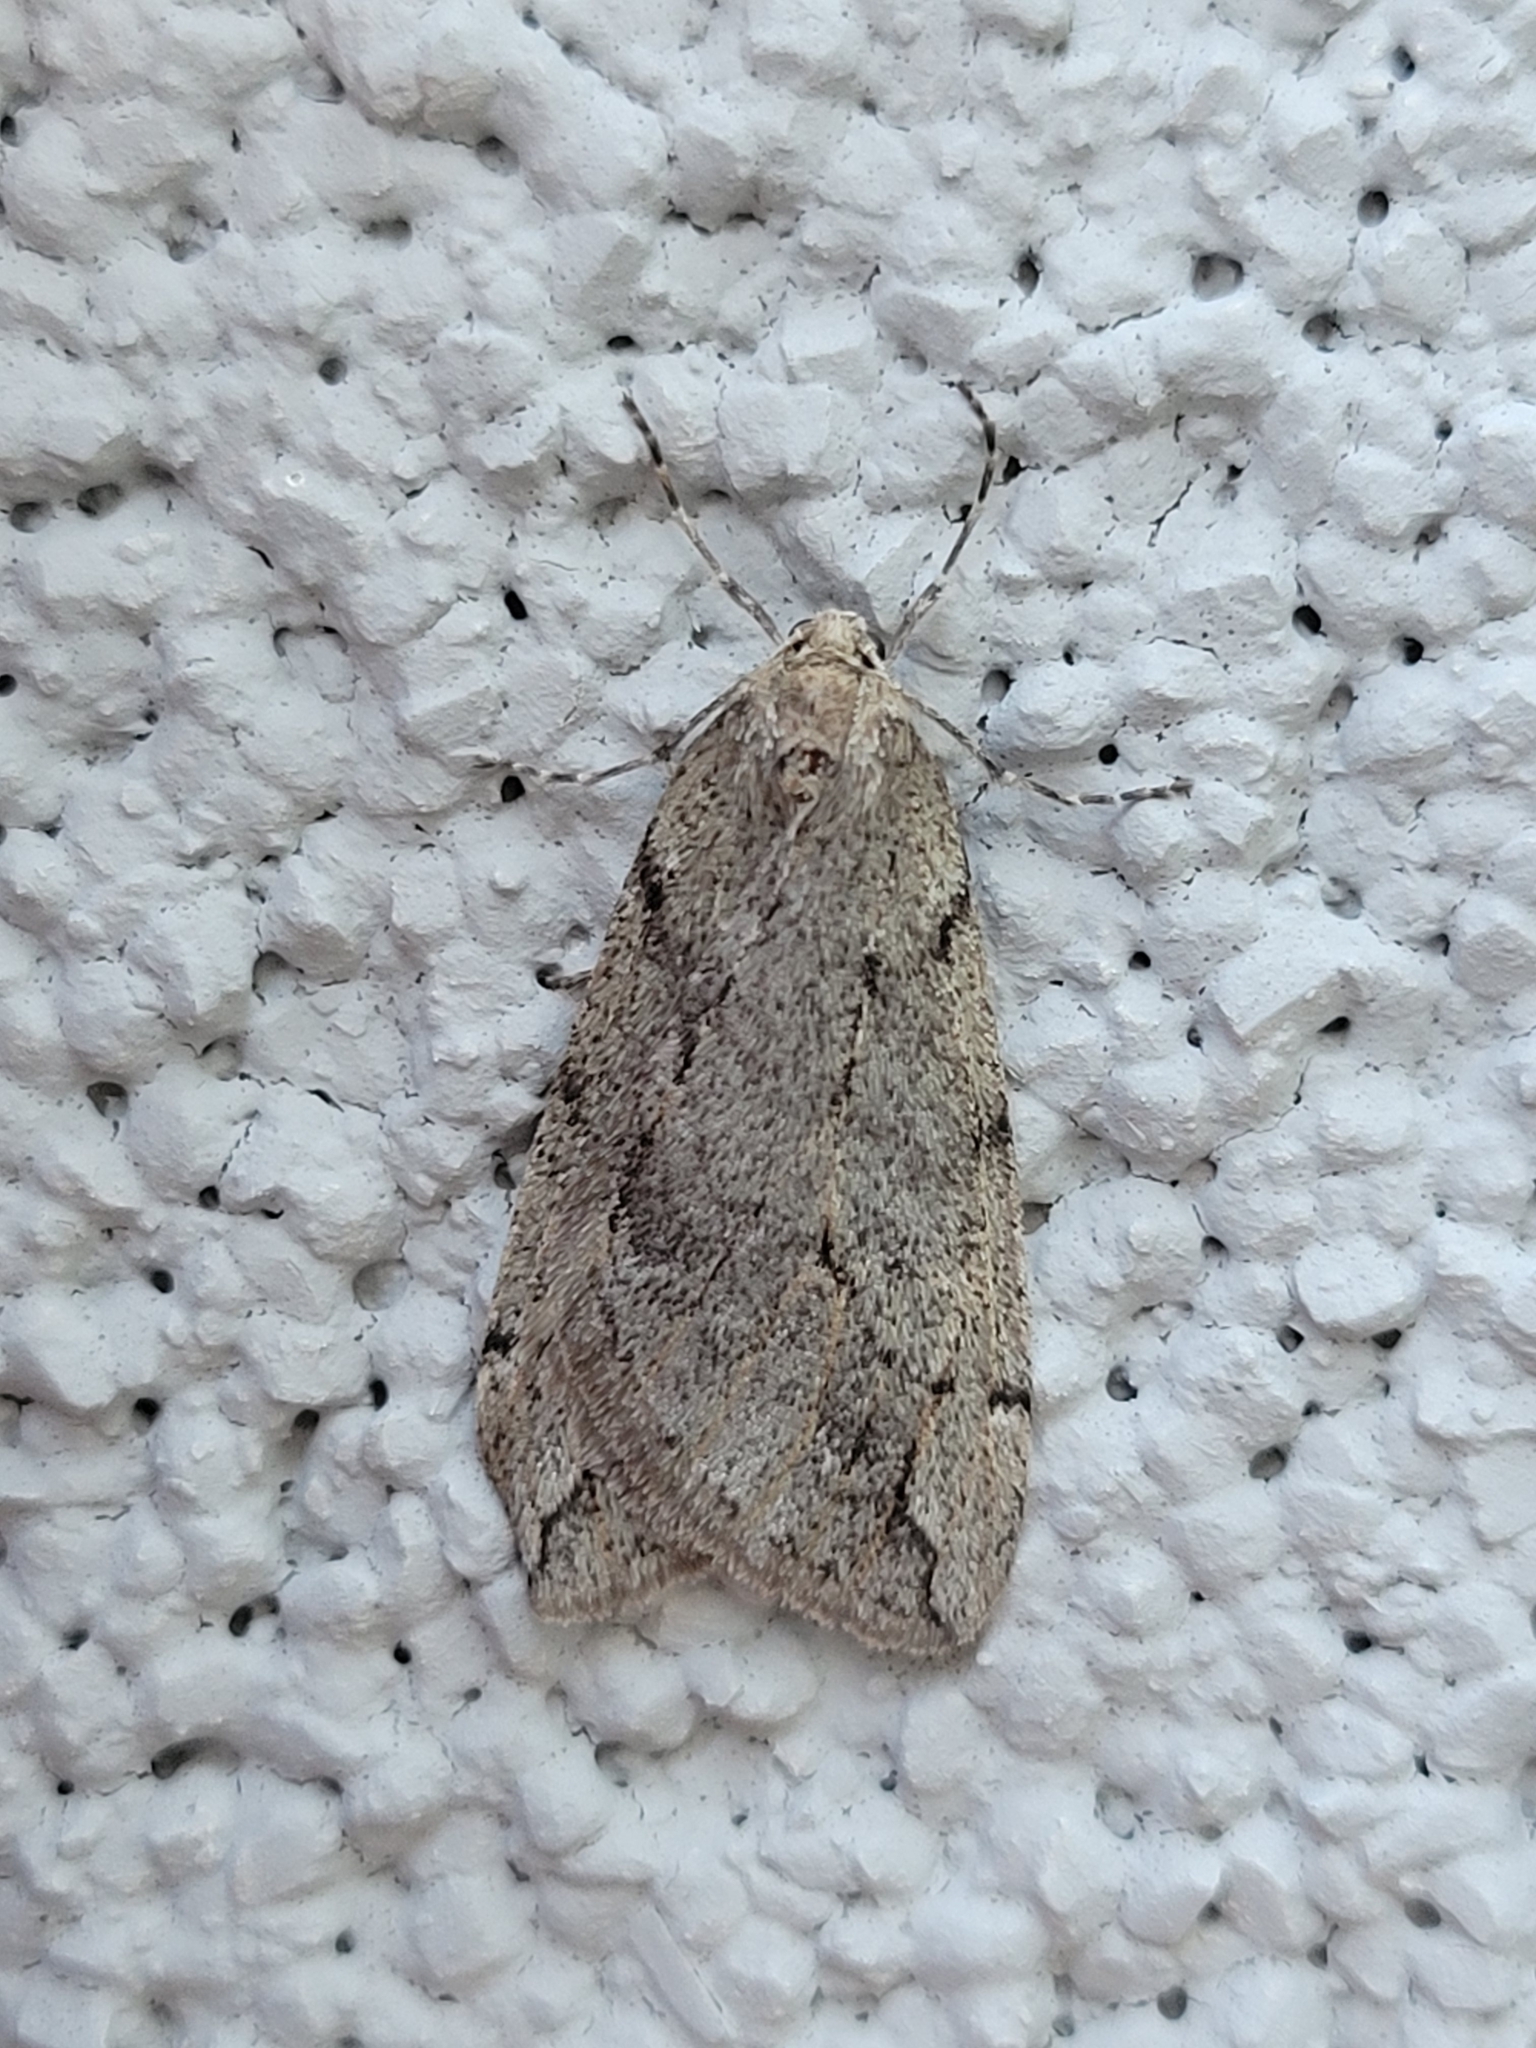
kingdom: Animalia
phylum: Arthropoda
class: Insecta
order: Lepidoptera
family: Geometridae
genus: Paleacrita
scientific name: Paleacrita vernata
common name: Spring cankerworm
